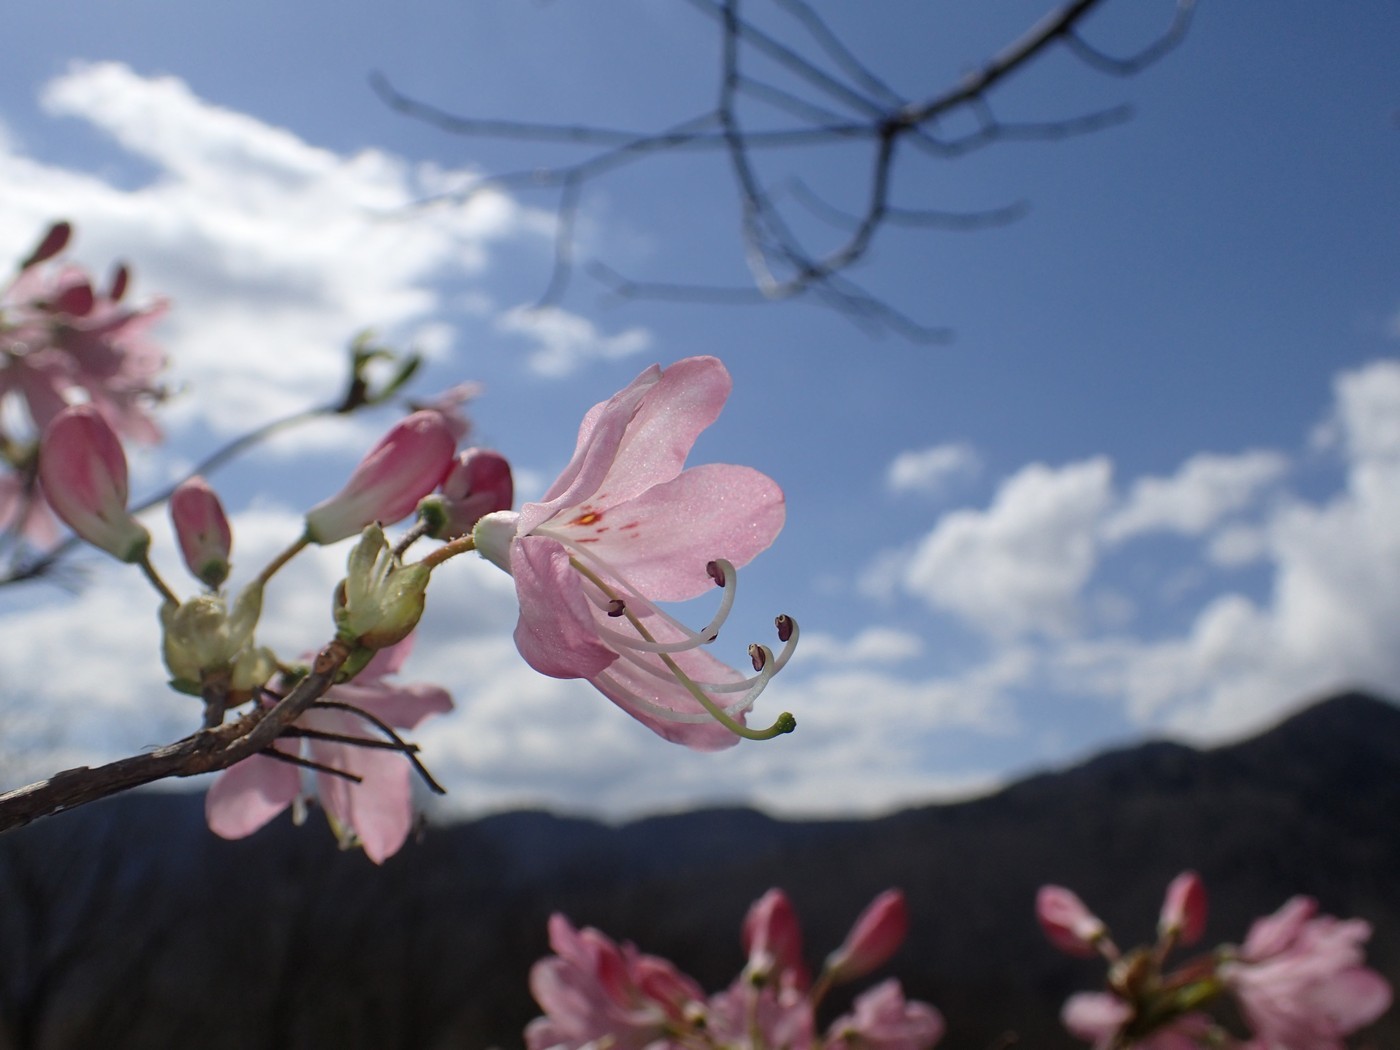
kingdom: Plantae
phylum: Tracheophyta
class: Magnoliopsida
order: Ericales
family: Ericaceae
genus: Rhododendron
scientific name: Rhododendron vaseyi
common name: Pink-shell azalea
